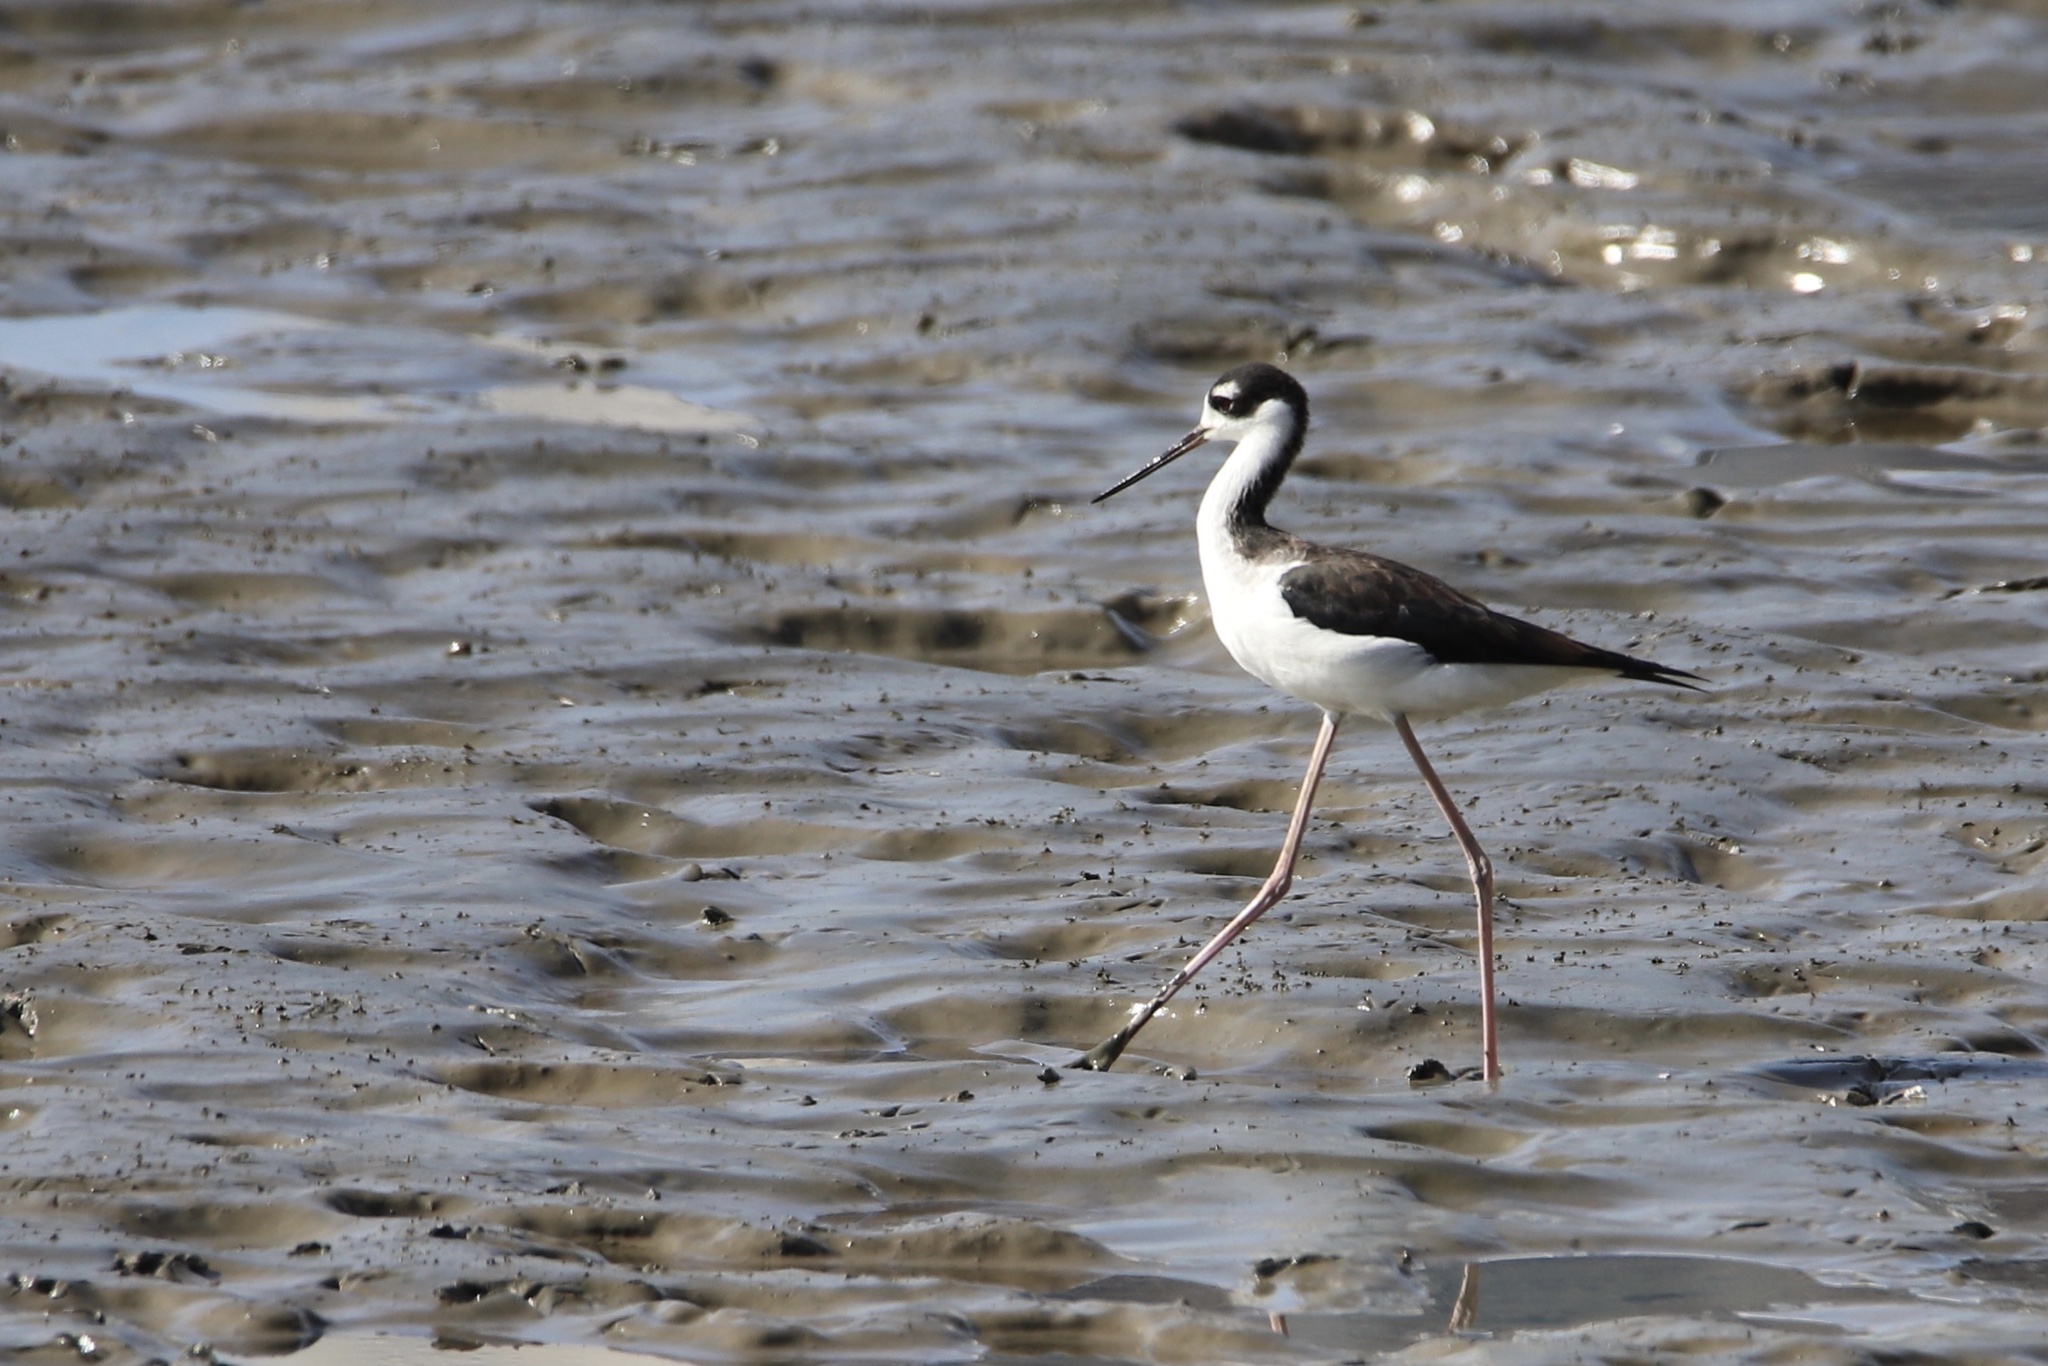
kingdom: Animalia
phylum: Chordata
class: Aves
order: Charadriiformes
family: Recurvirostridae
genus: Himantopus
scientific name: Himantopus mexicanus
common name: Black-necked stilt
